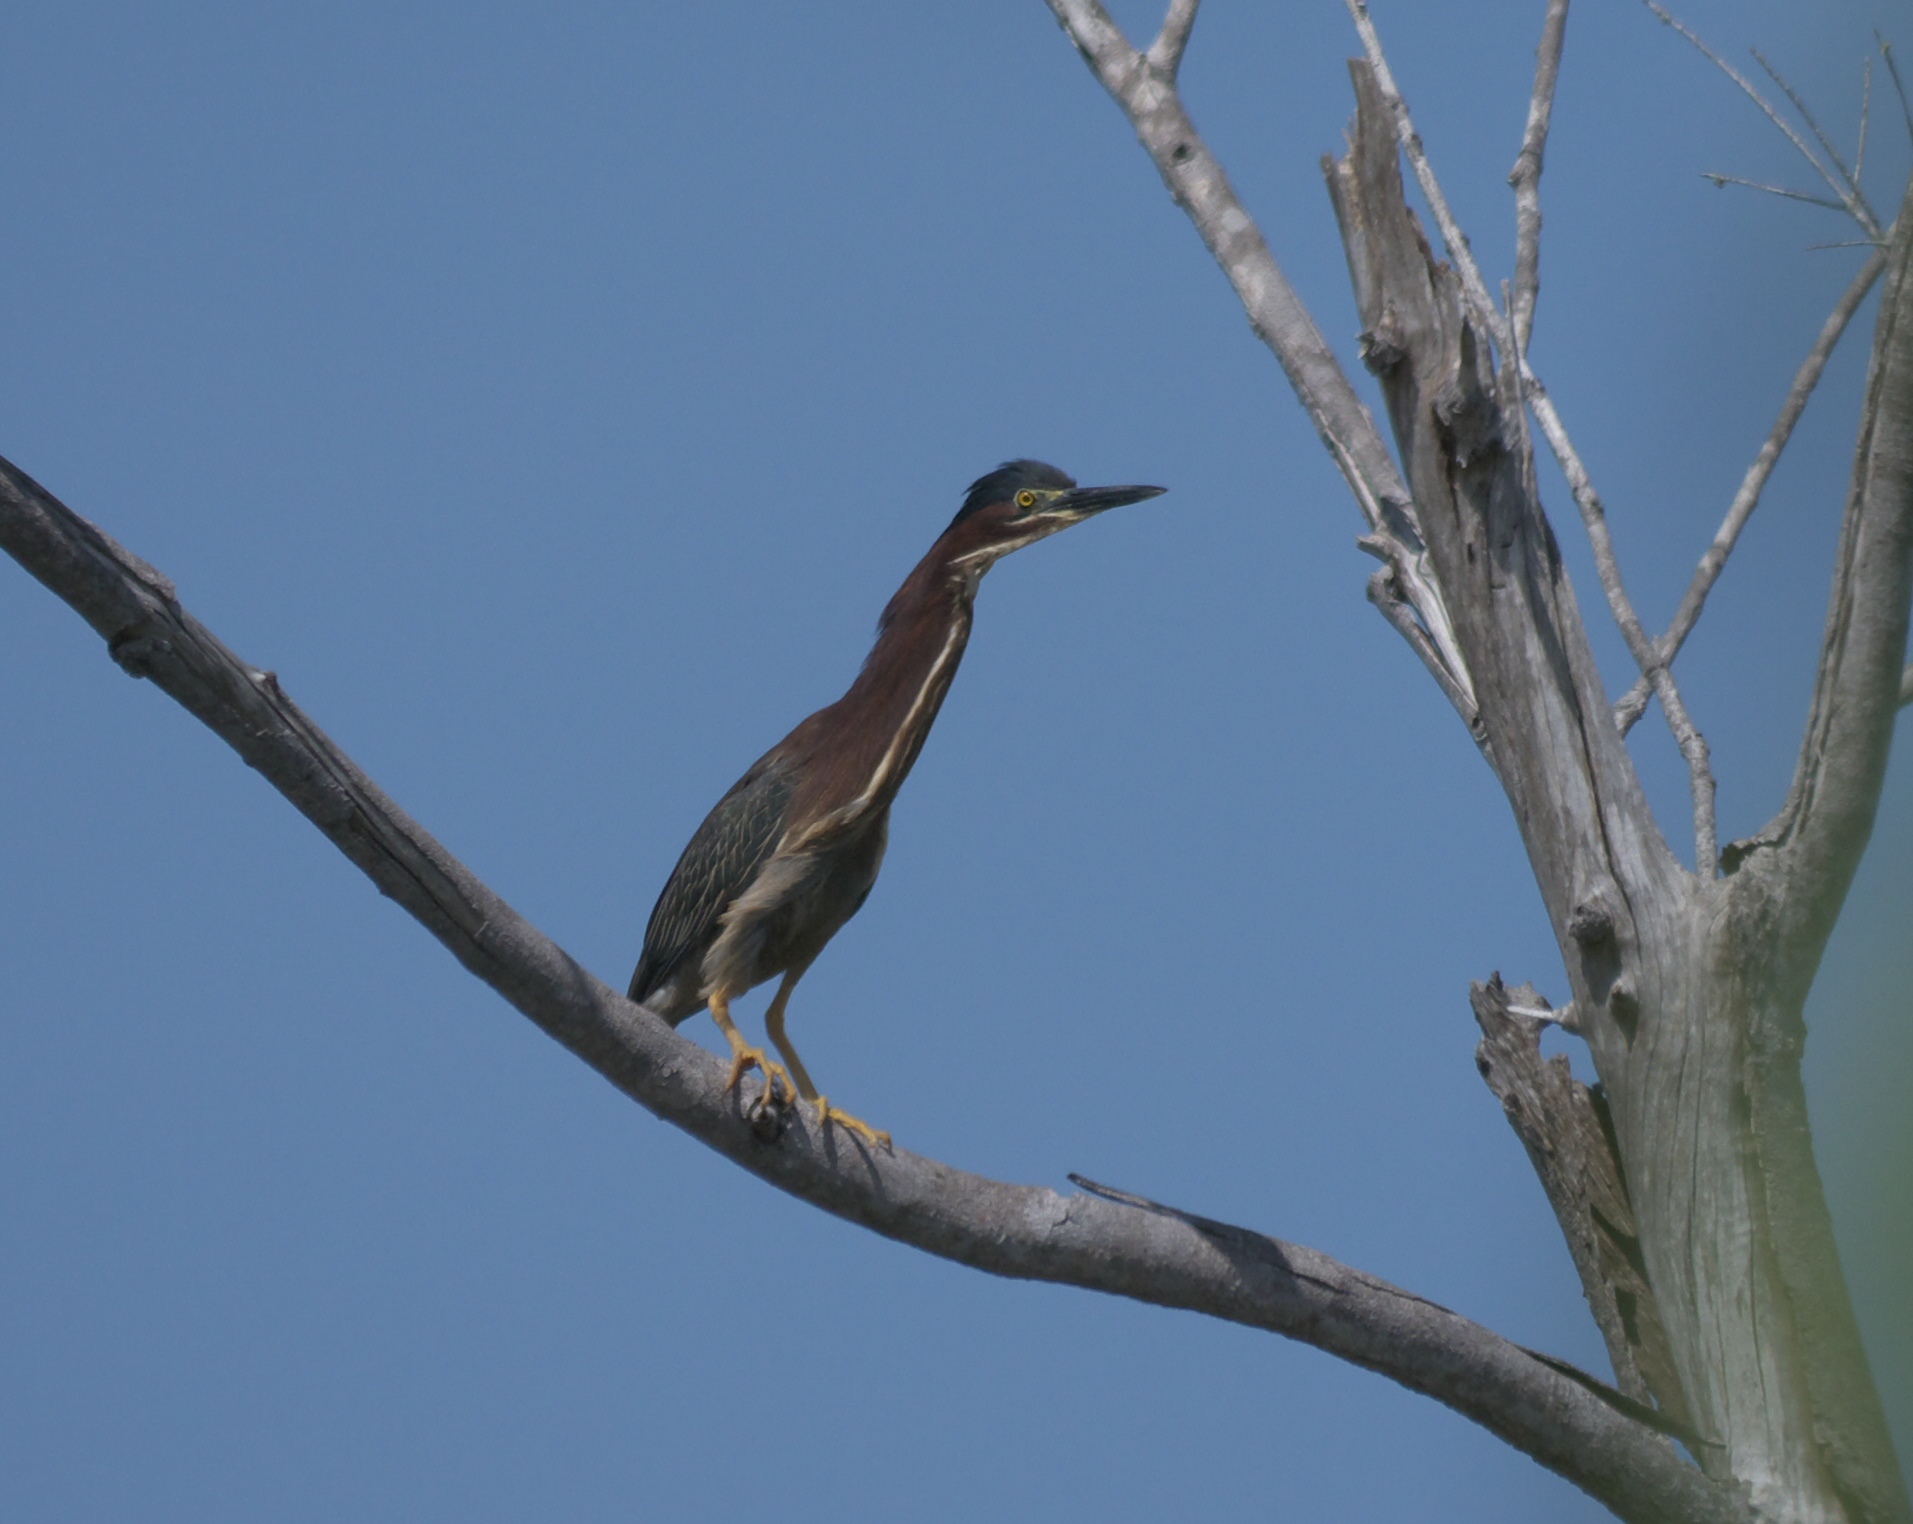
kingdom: Animalia
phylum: Chordata
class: Aves
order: Pelecaniformes
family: Ardeidae
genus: Butorides
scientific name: Butorides virescens
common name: Green heron
